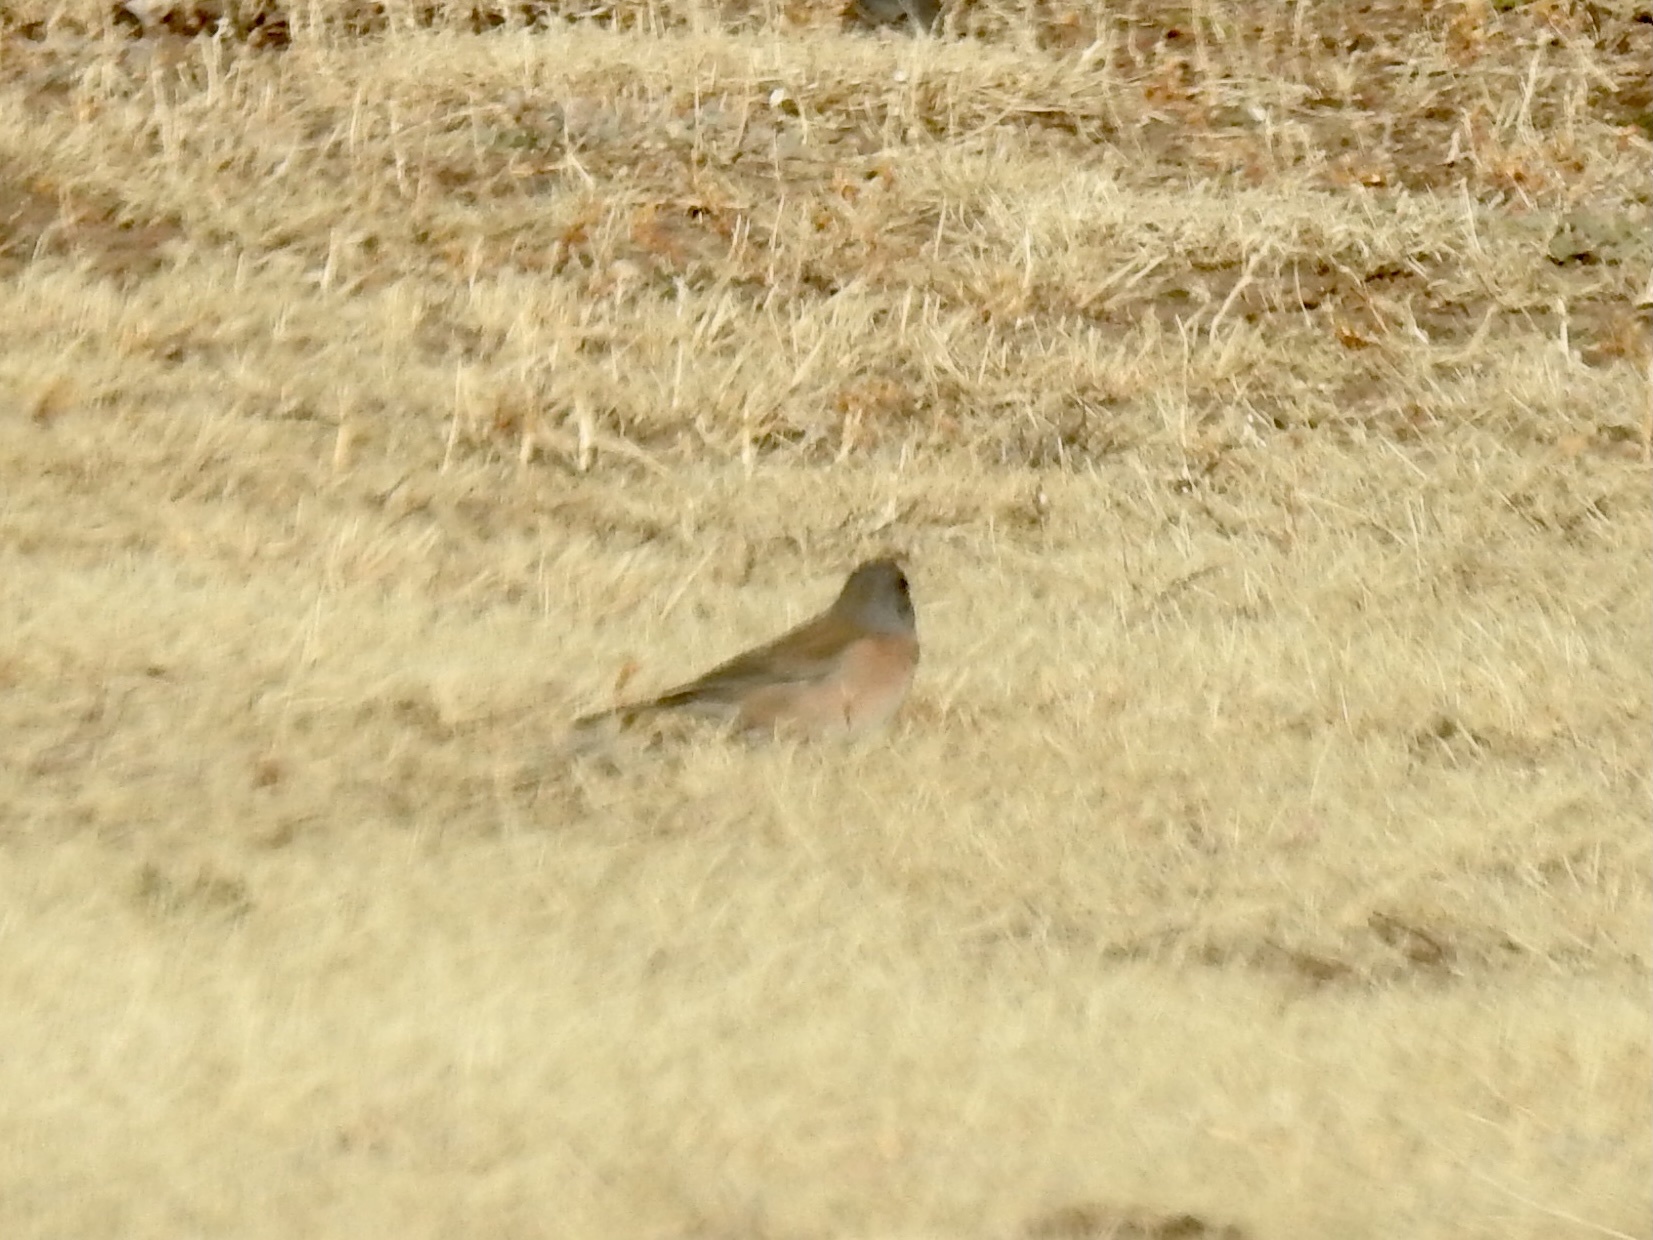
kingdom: Animalia
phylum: Chordata
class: Aves
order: Passeriformes
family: Passerellidae
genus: Junco
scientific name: Junco hyemalis
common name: Dark-eyed junco
